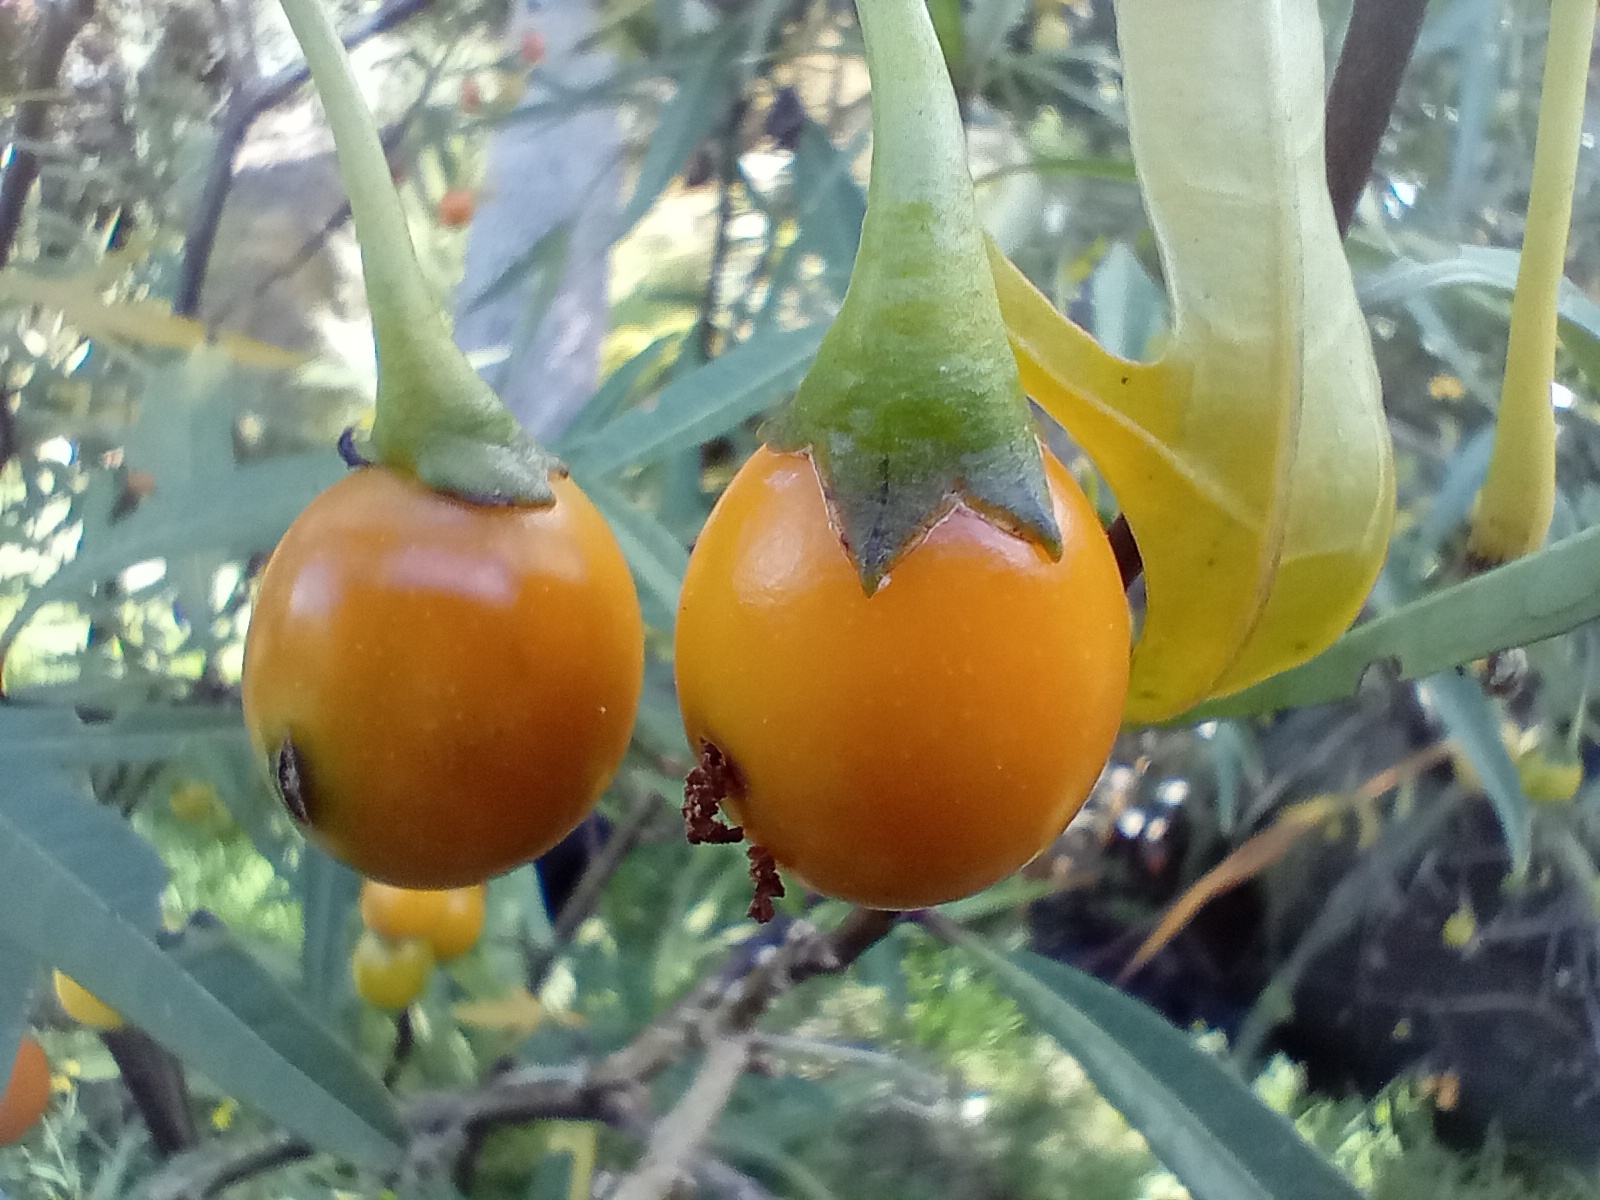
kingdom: Plantae
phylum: Tracheophyta
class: Magnoliopsida
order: Solanales
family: Solanaceae
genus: Solanum
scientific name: Solanum laciniatum
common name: Kangaroo-apple
